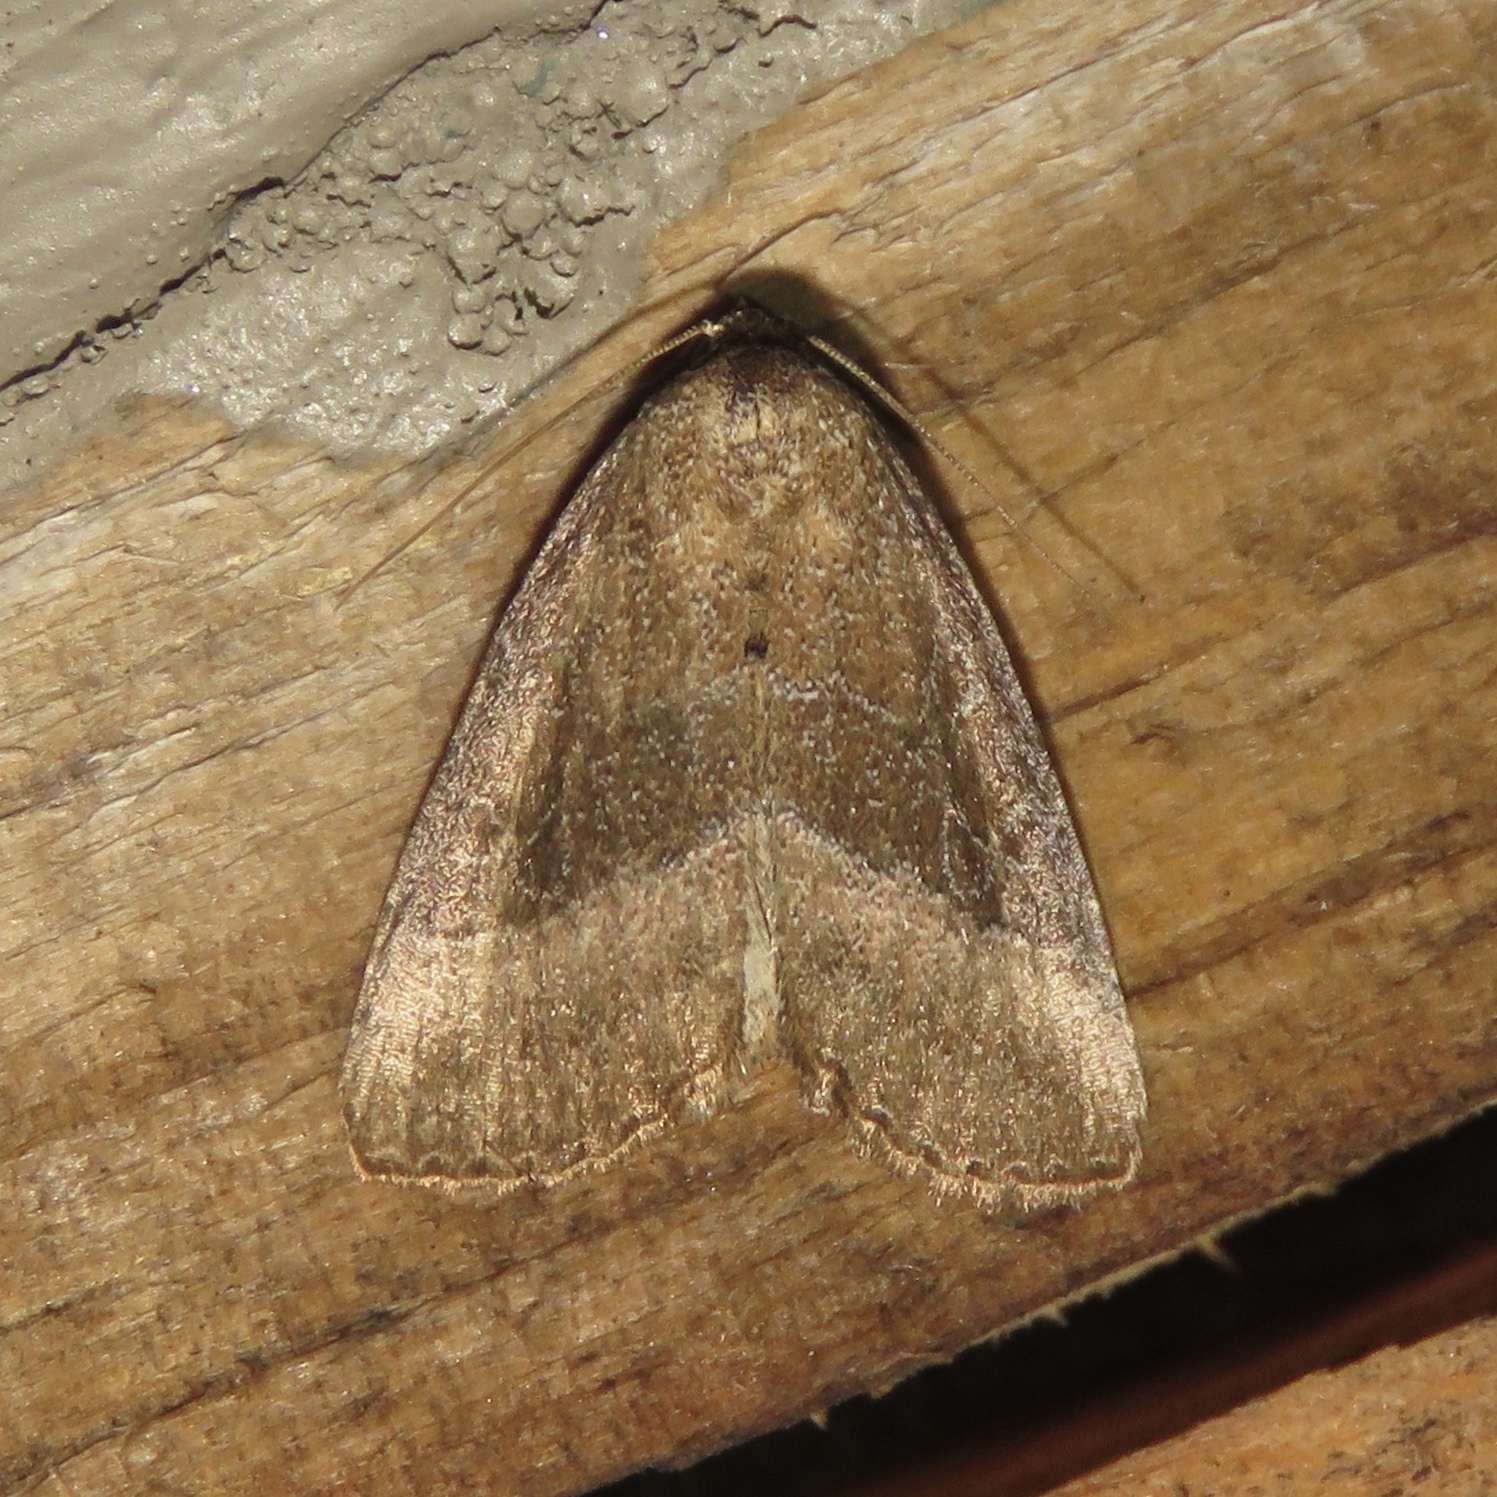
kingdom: Animalia
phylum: Arthropoda
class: Insecta
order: Lepidoptera
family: Noctuidae
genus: Ogdoconta
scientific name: Ogdoconta cinereola
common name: Common pinkband
